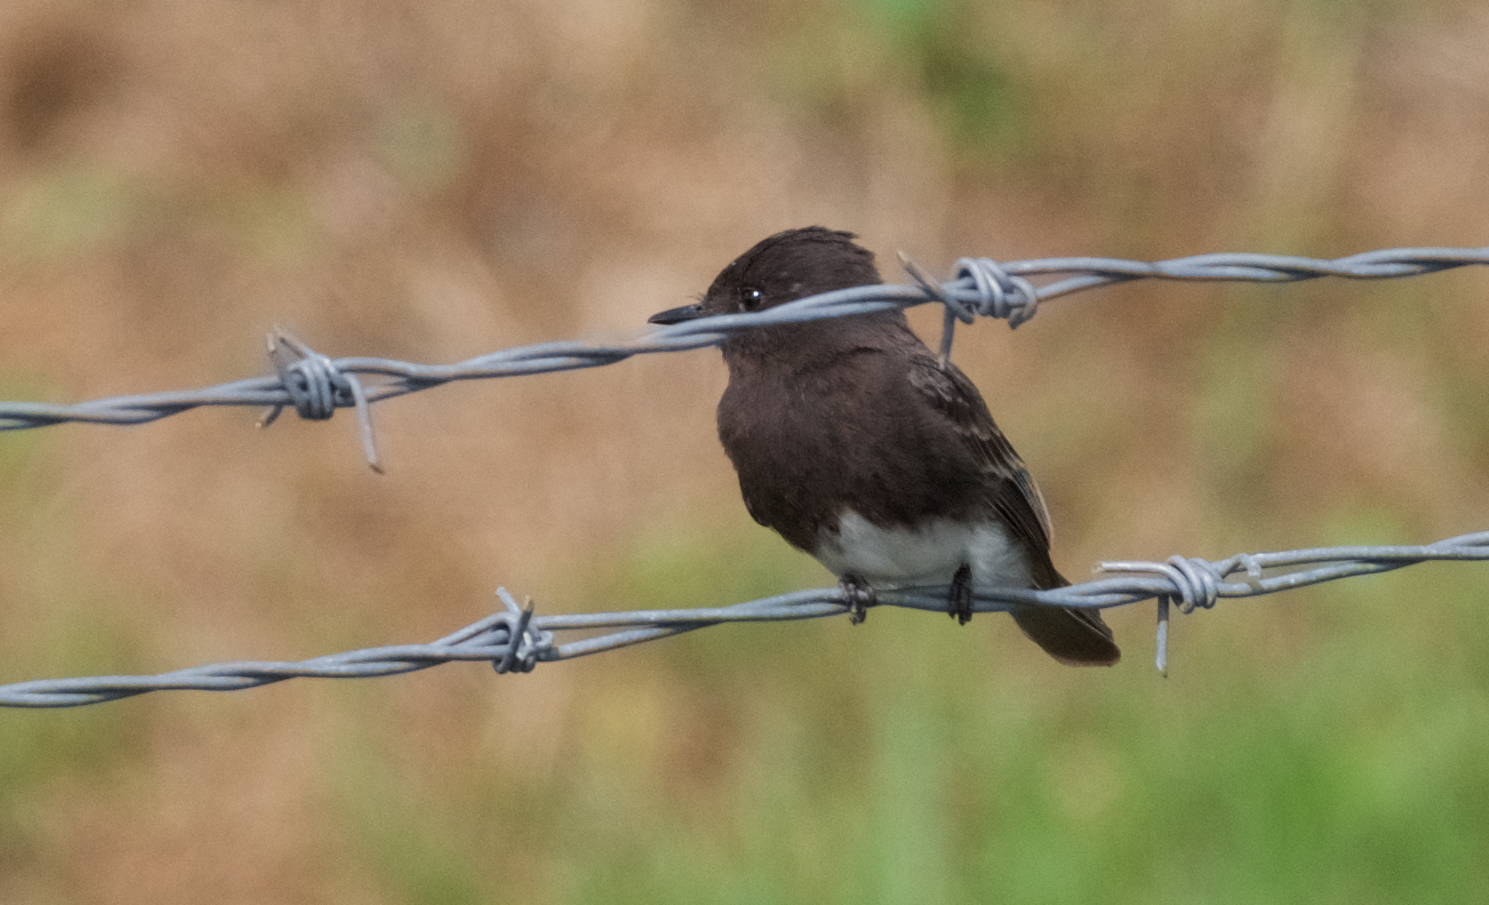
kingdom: Animalia
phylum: Chordata
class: Aves
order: Passeriformes
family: Tyrannidae
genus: Sayornis
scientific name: Sayornis nigricans
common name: Black phoebe
